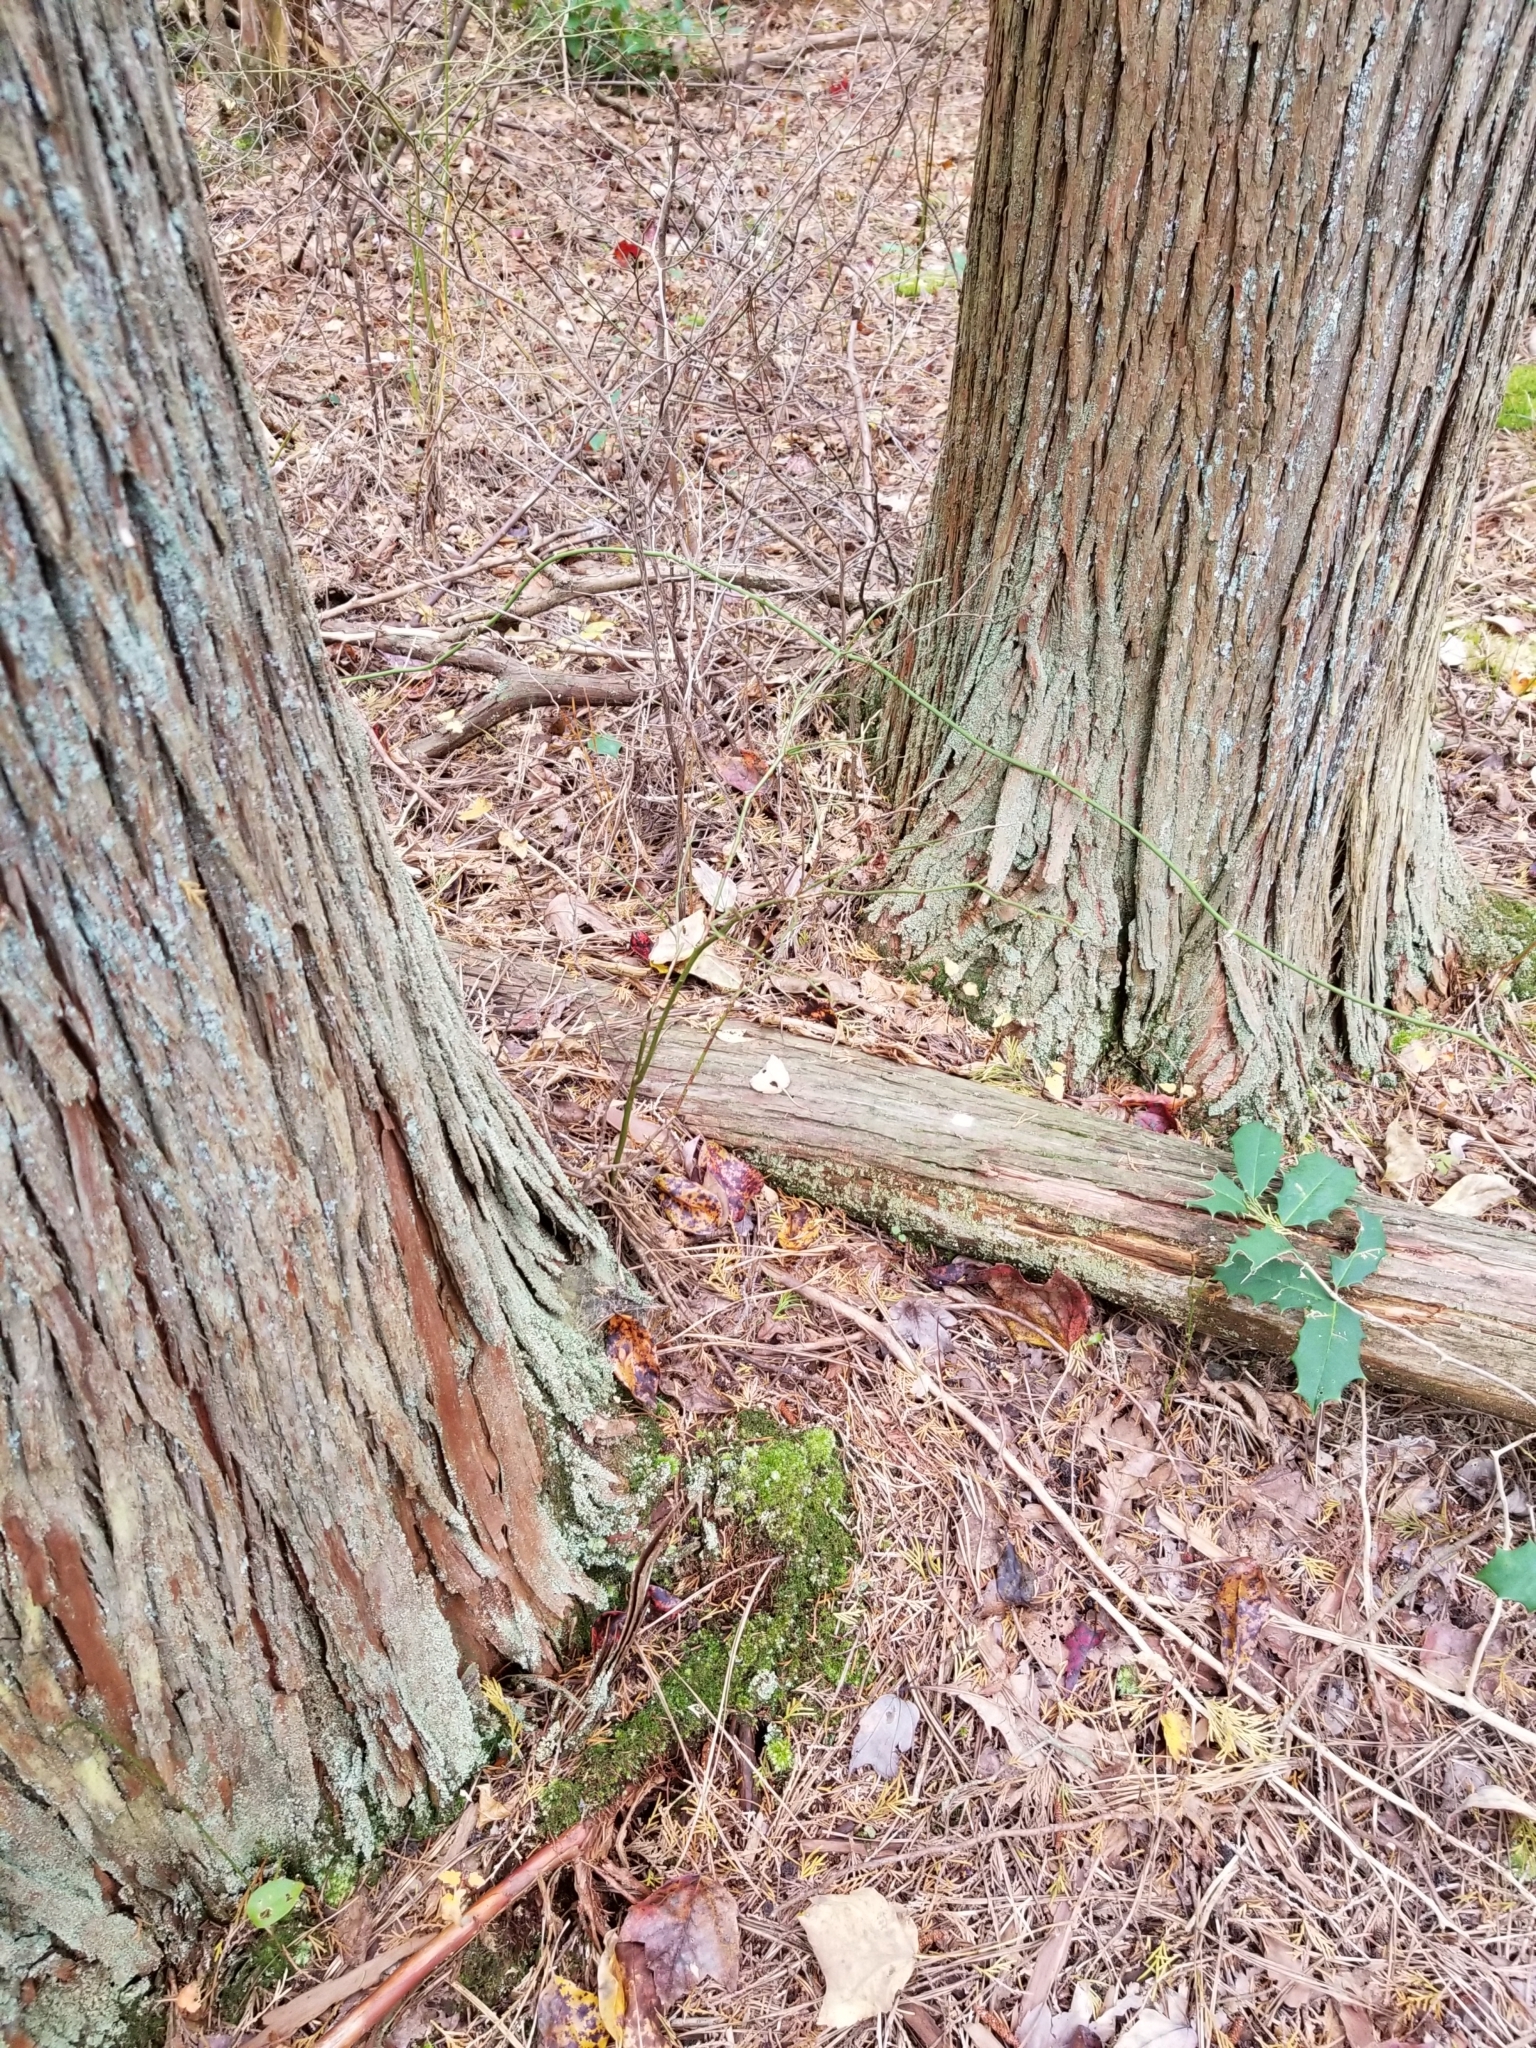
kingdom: Plantae
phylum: Tracheophyta
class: Pinopsida
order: Pinales
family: Cupressaceae
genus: Chamaecyparis
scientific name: Chamaecyparis thyoides
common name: Atlantic white cedar
